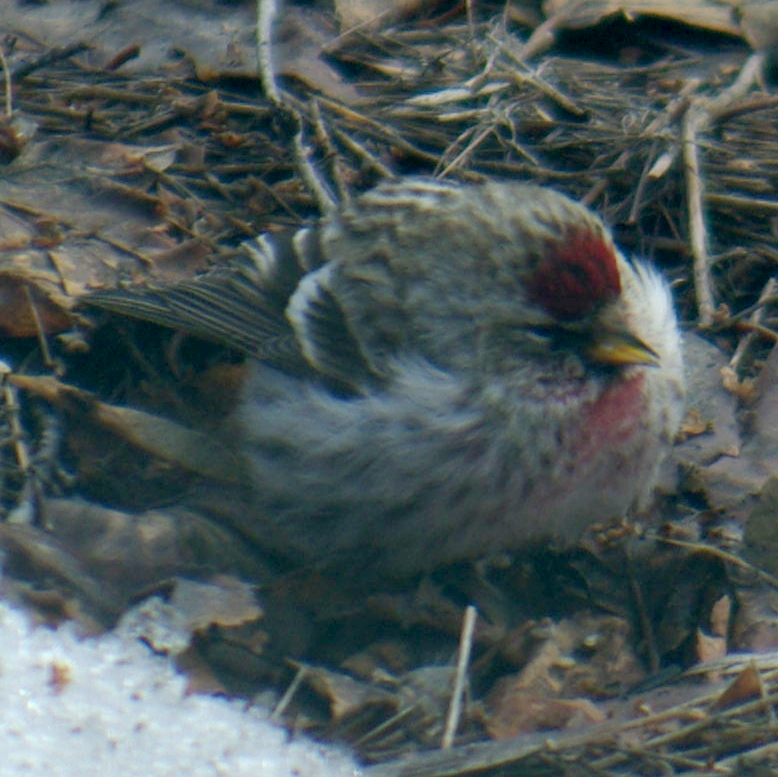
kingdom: Animalia
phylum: Chordata
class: Aves
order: Passeriformes
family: Fringillidae
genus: Acanthis
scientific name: Acanthis flammea
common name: Common redpoll
